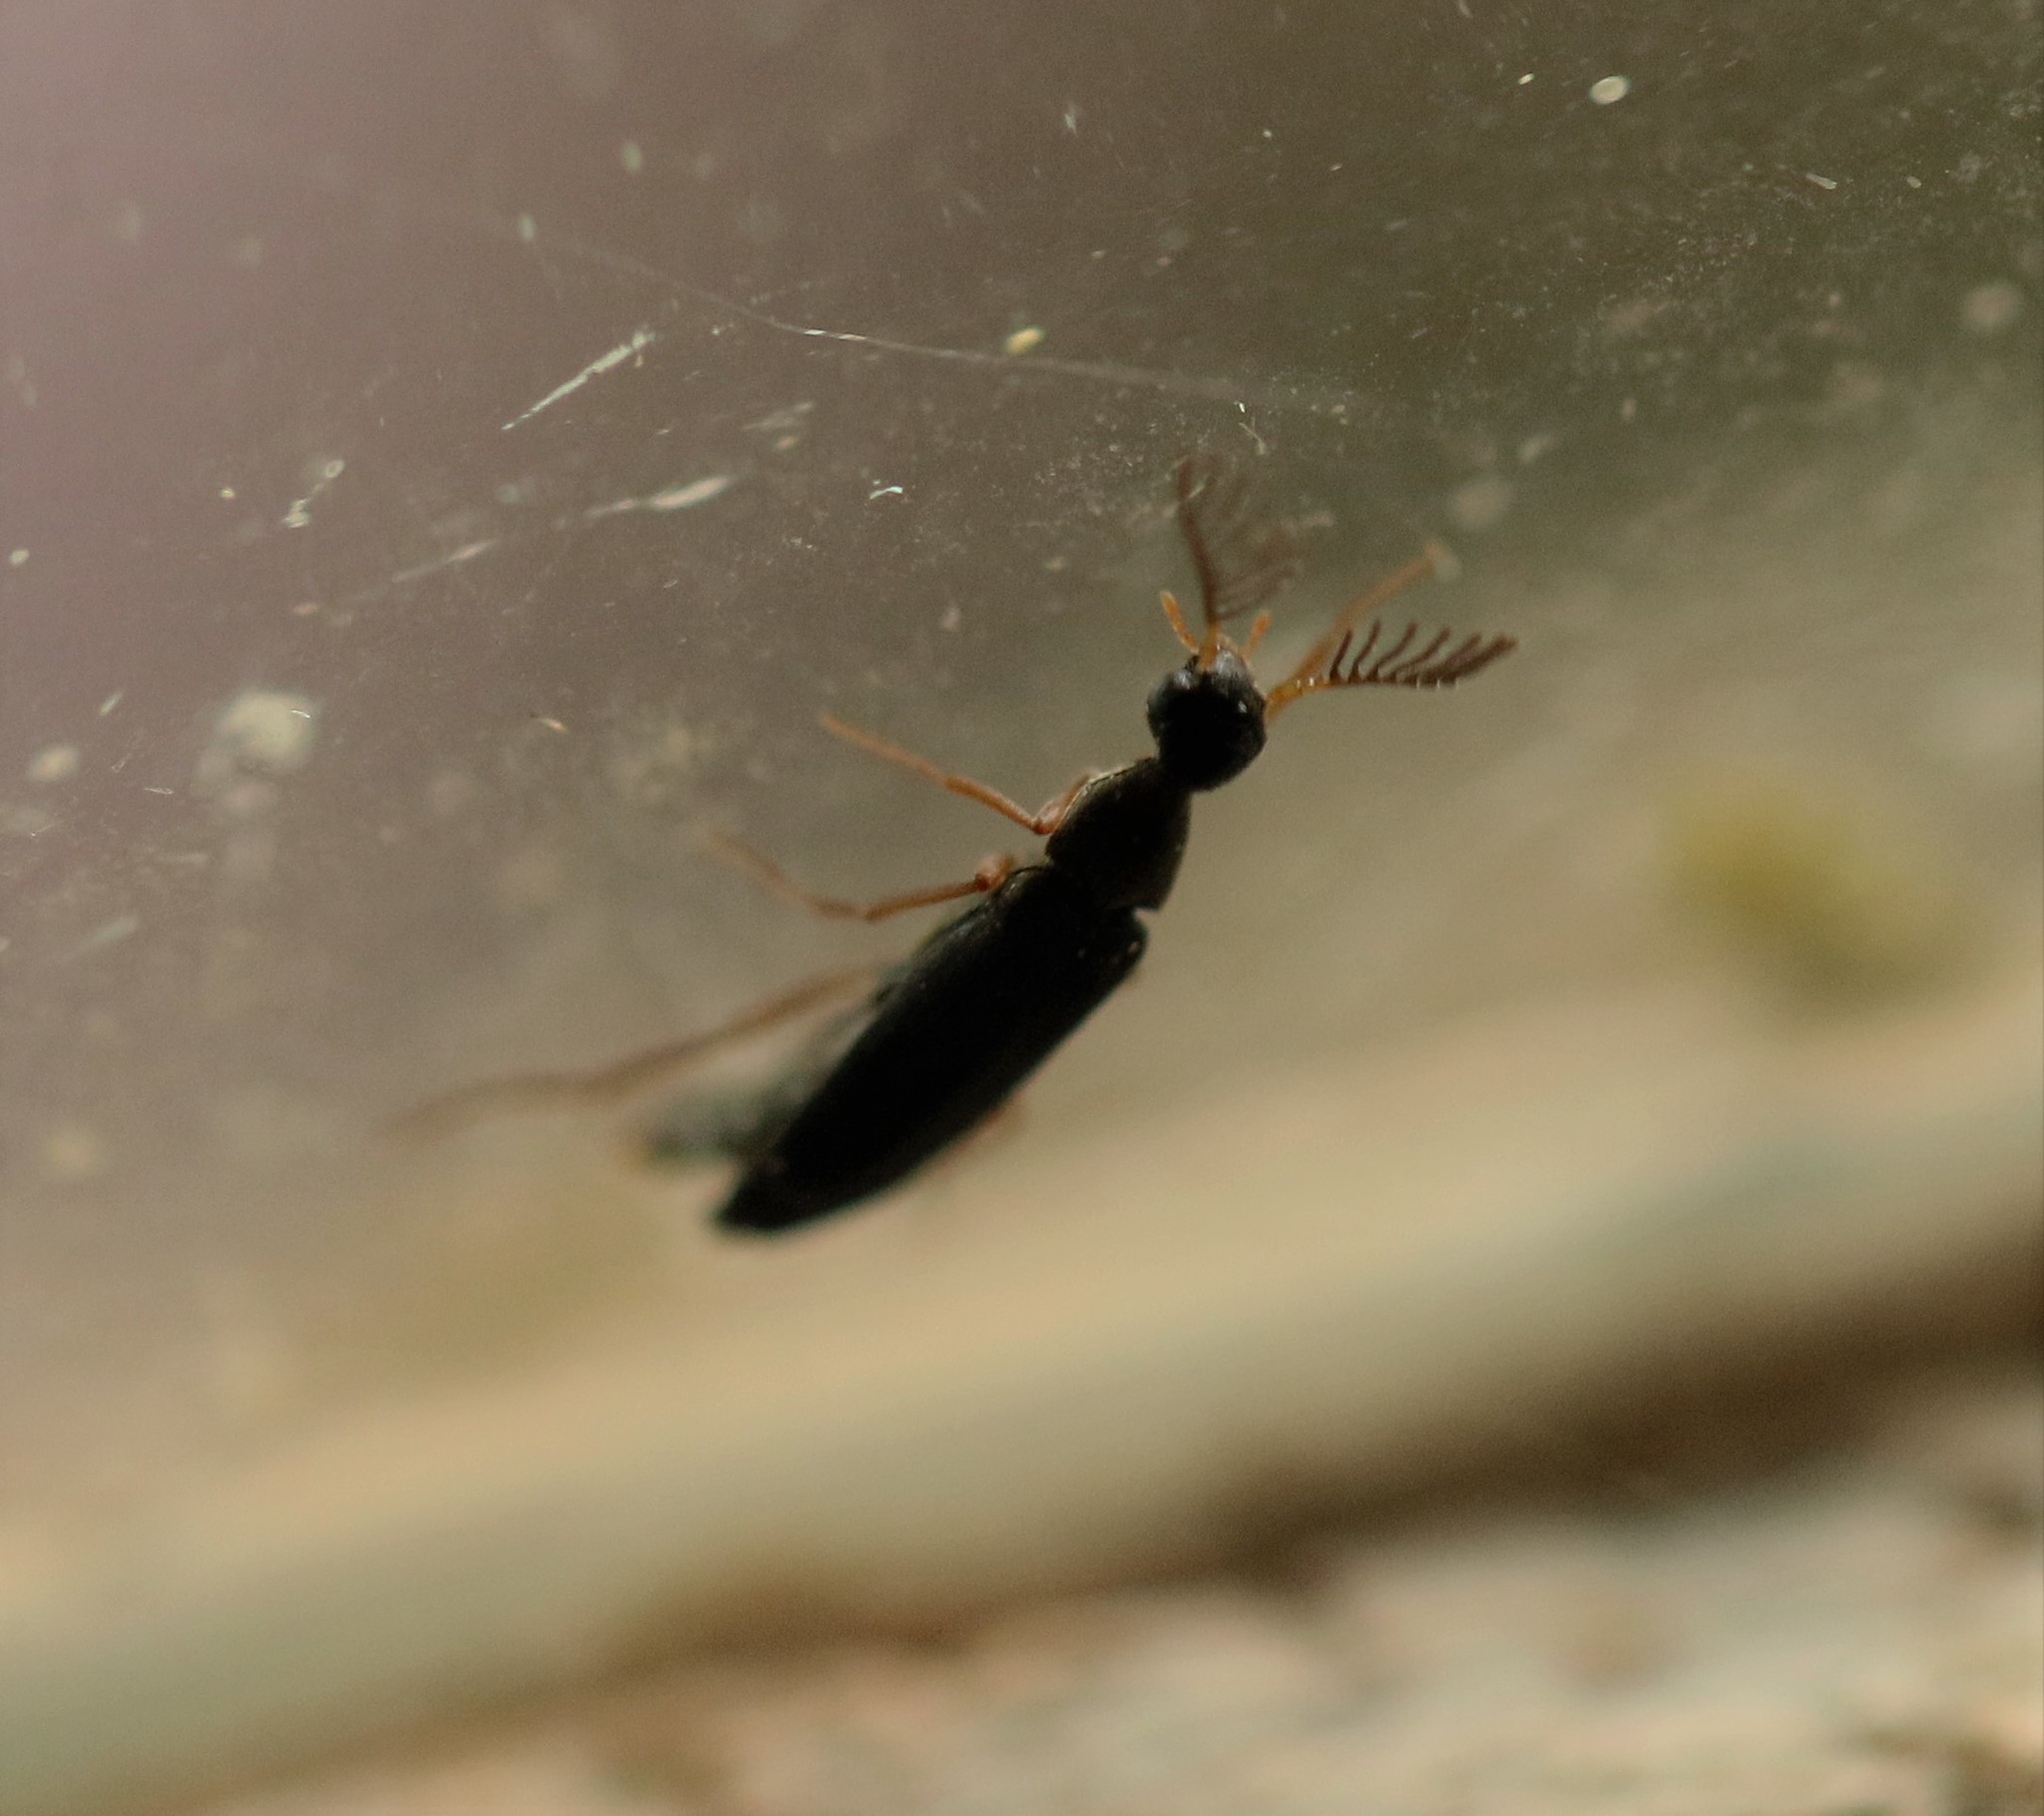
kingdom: Animalia
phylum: Arthropoda
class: Insecta
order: Coleoptera
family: Ripiphoridae
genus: Pelecotoma
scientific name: Pelecotoma flavipes
